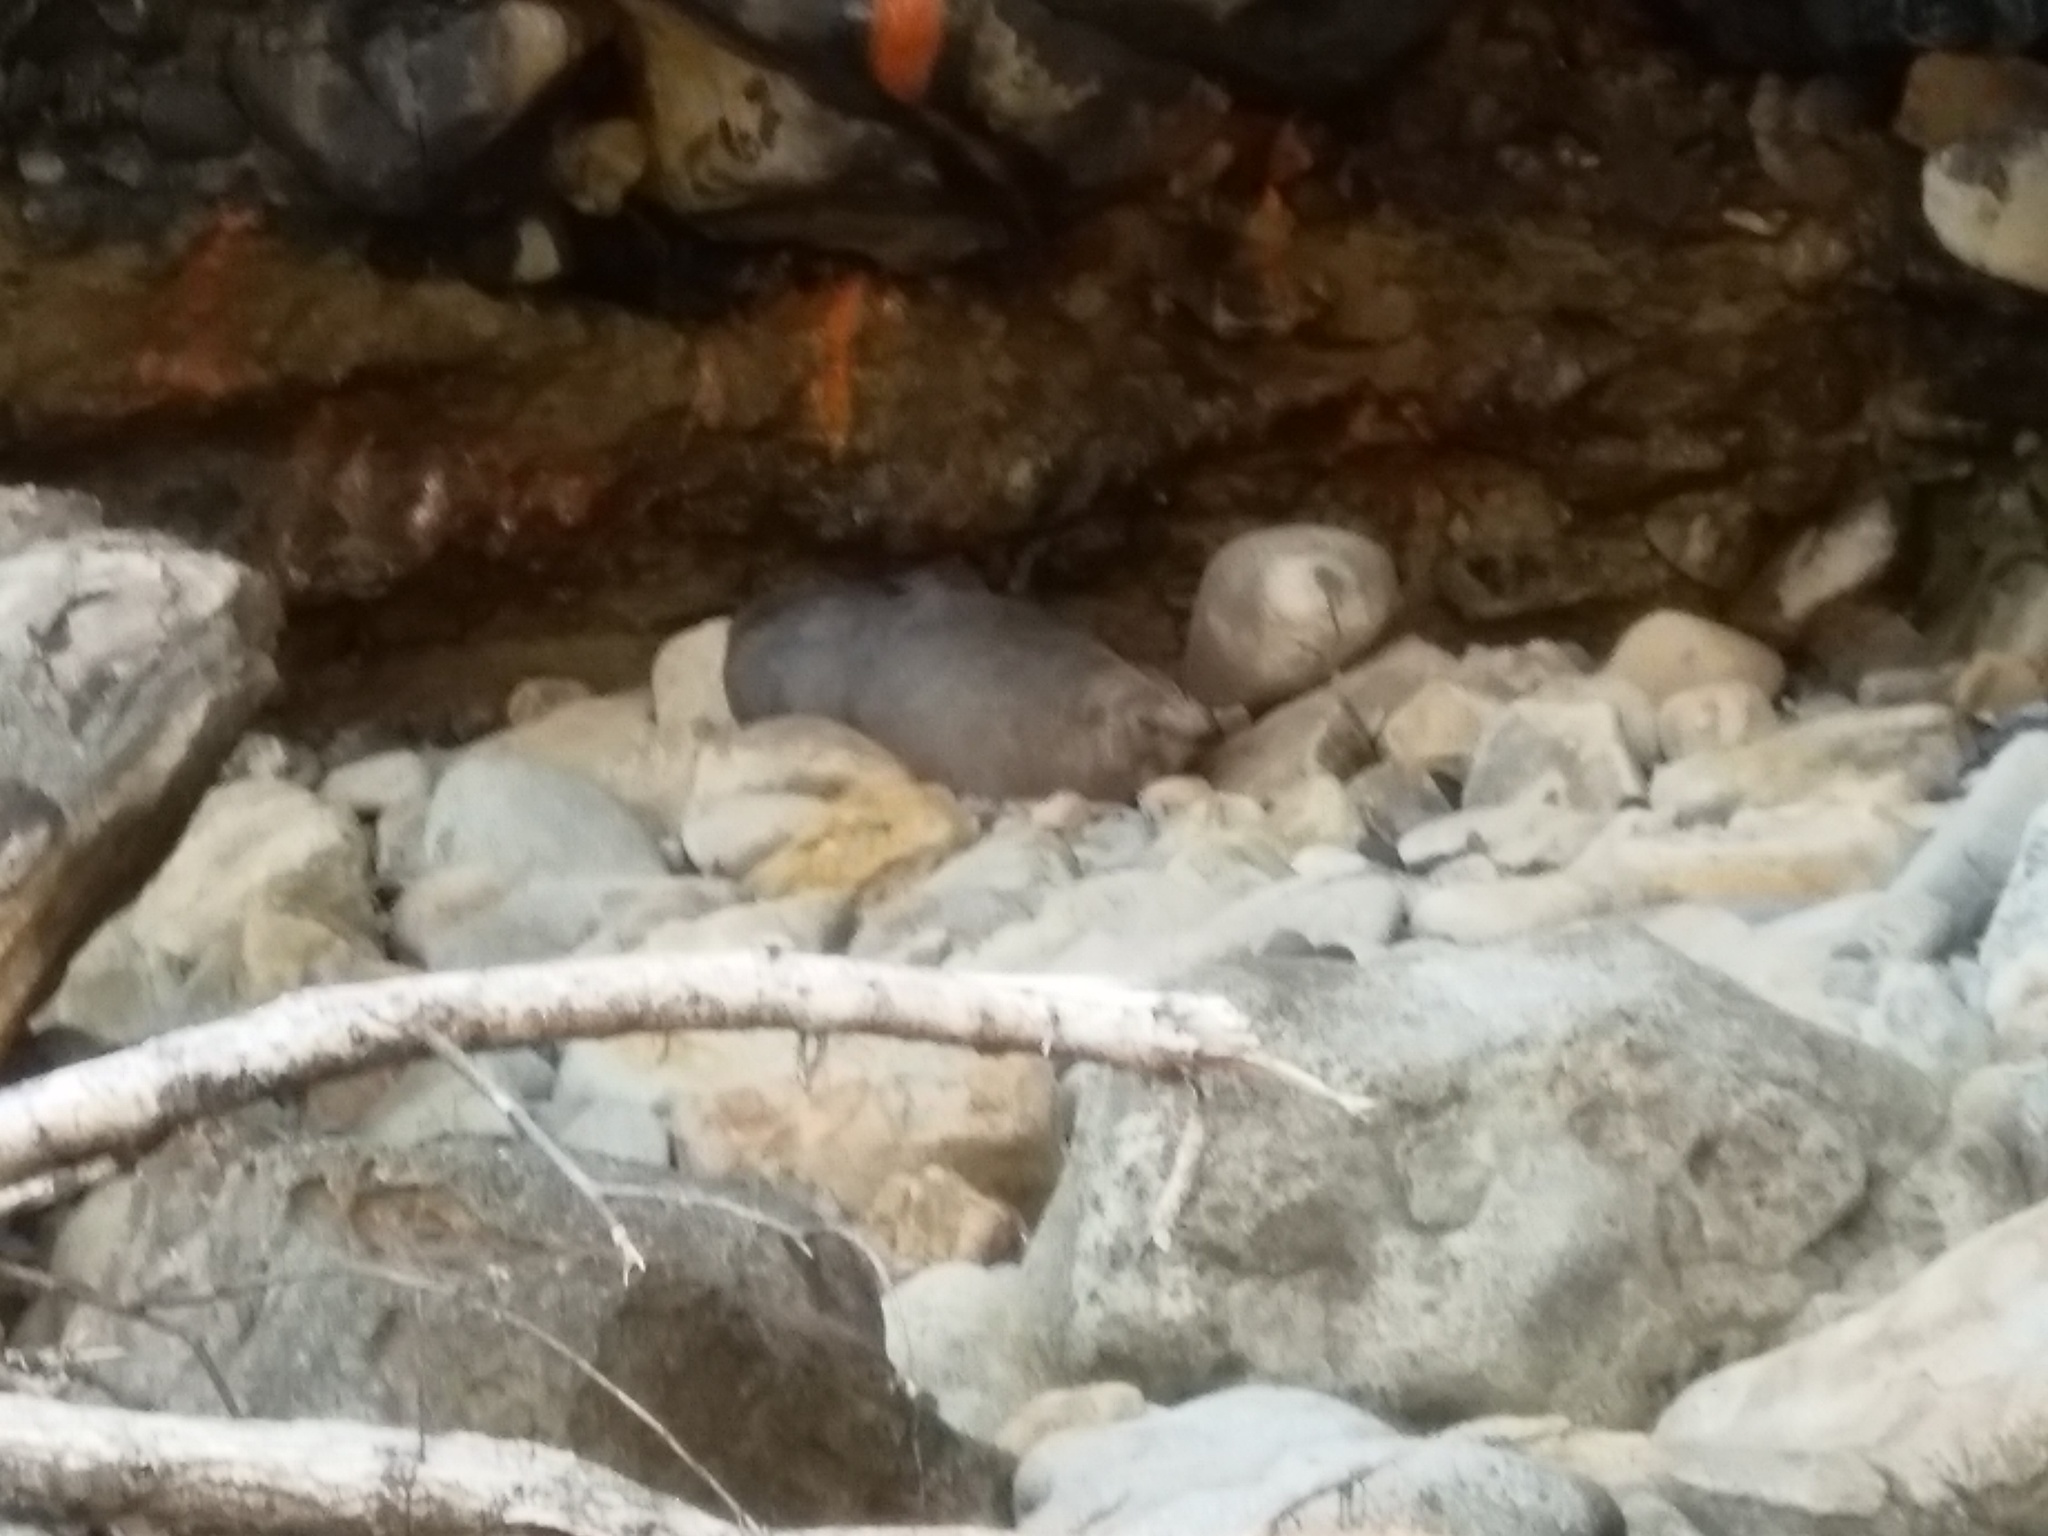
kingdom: Animalia
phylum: Chordata
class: Mammalia
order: Carnivora
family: Otariidae
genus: Arctocephalus
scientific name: Arctocephalus forsteri
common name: New zealand fur seal
